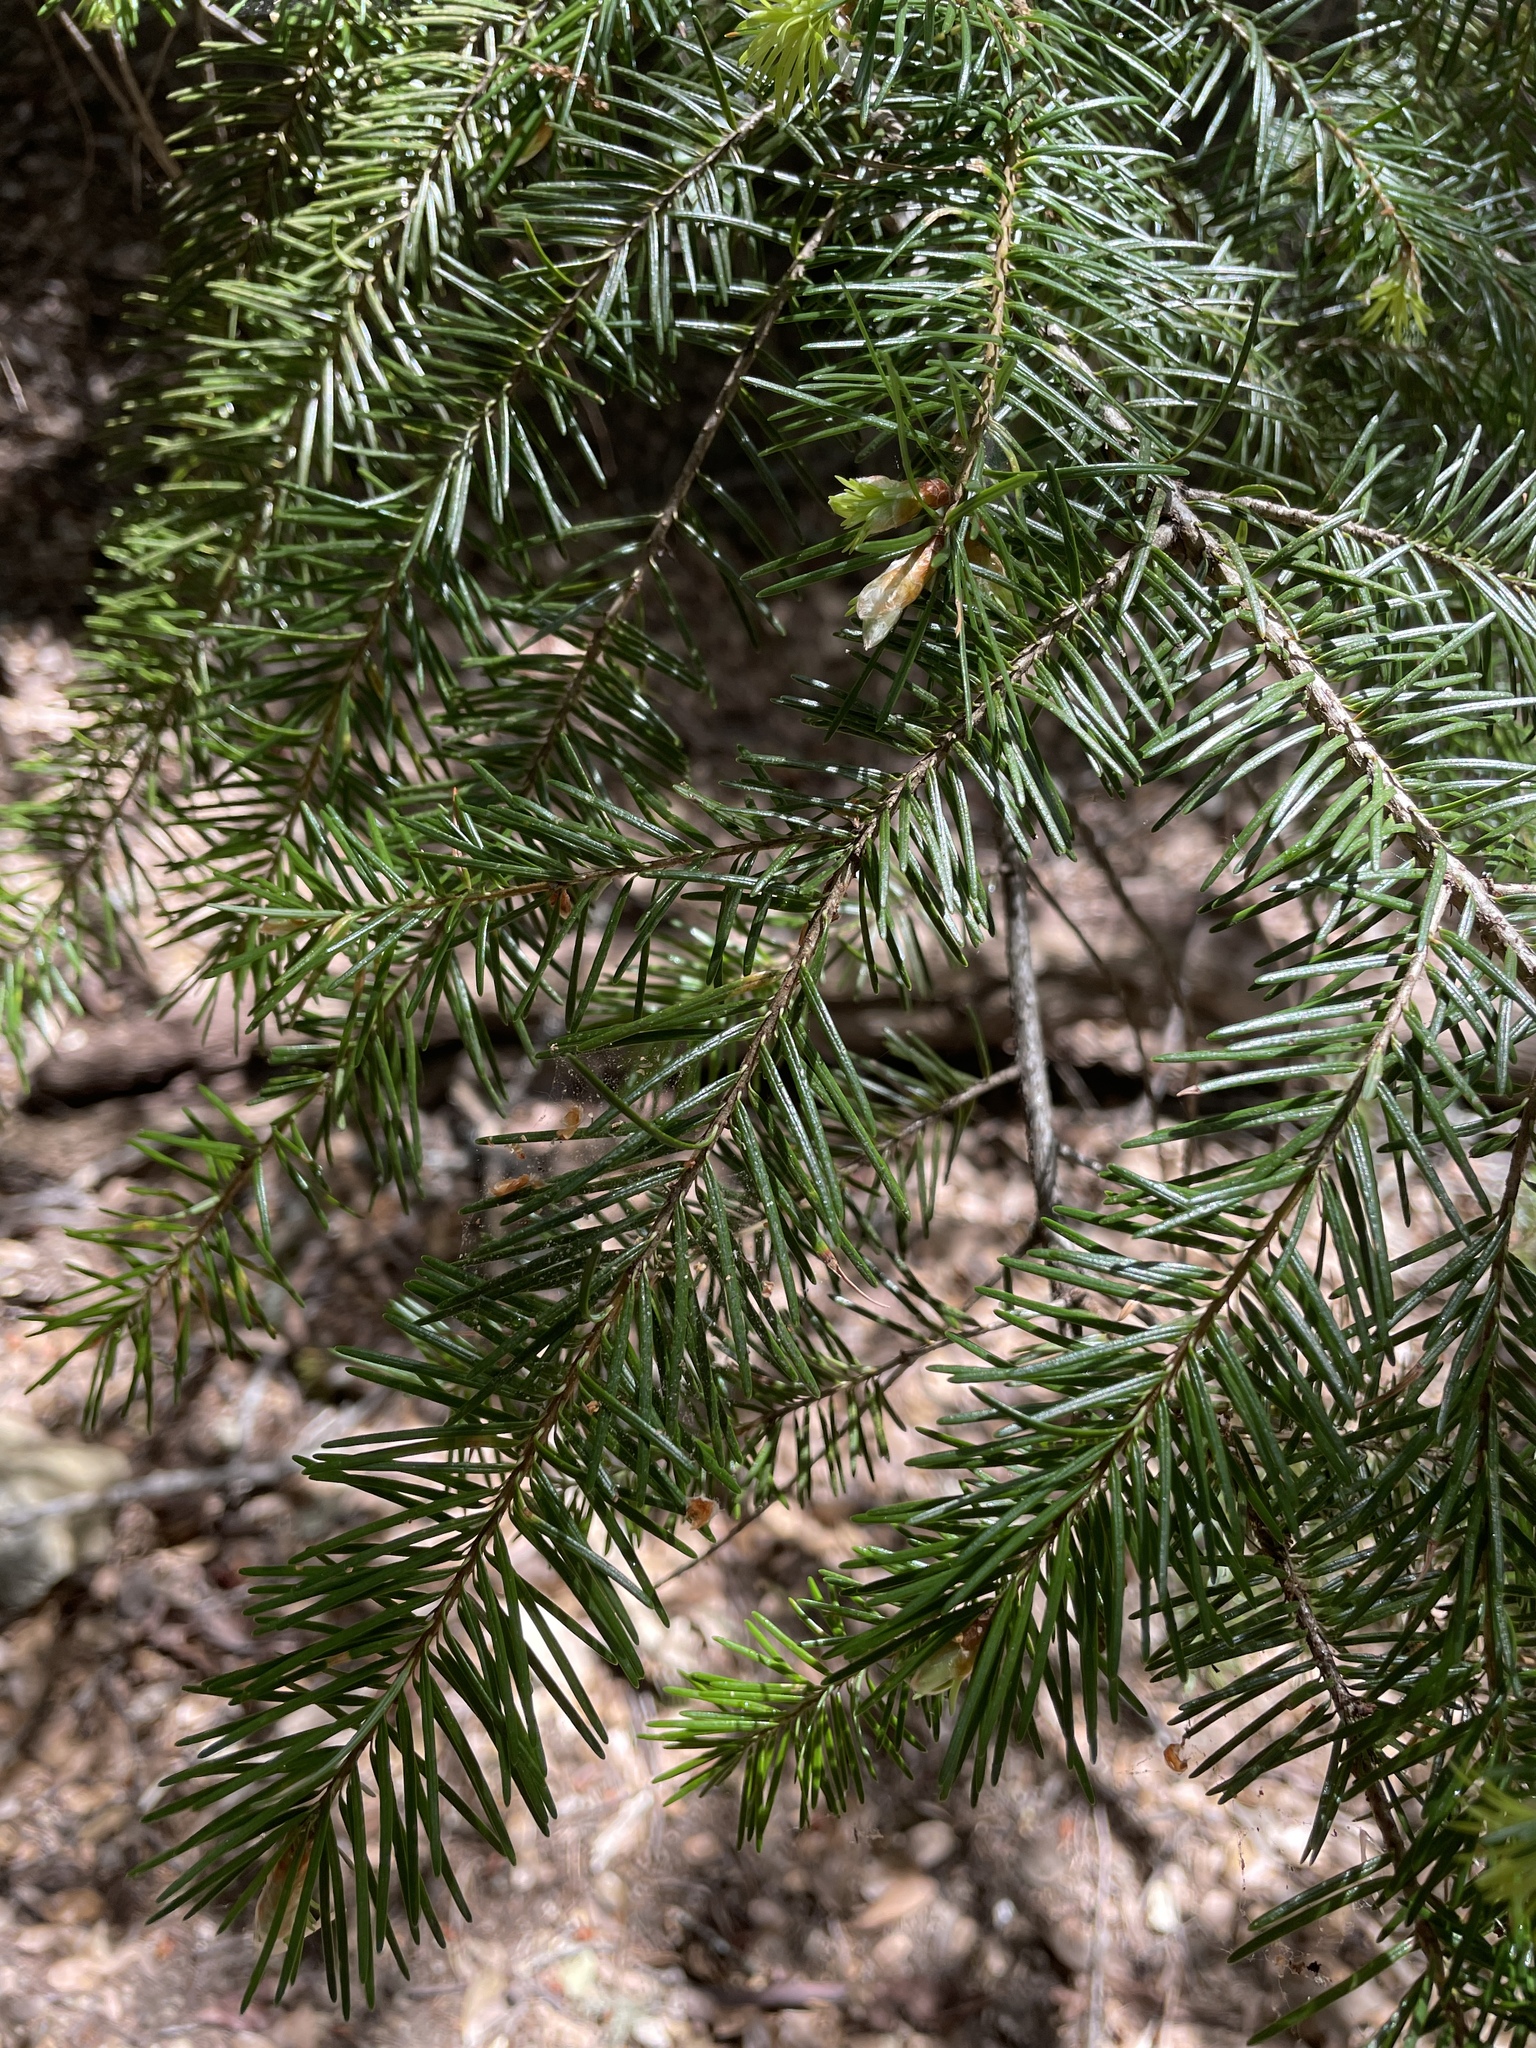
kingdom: Plantae
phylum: Tracheophyta
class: Pinopsida
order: Pinales
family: Pinaceae
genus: Pseudotsuga
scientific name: Pseudotsuga menziesii
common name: Douglas fir
